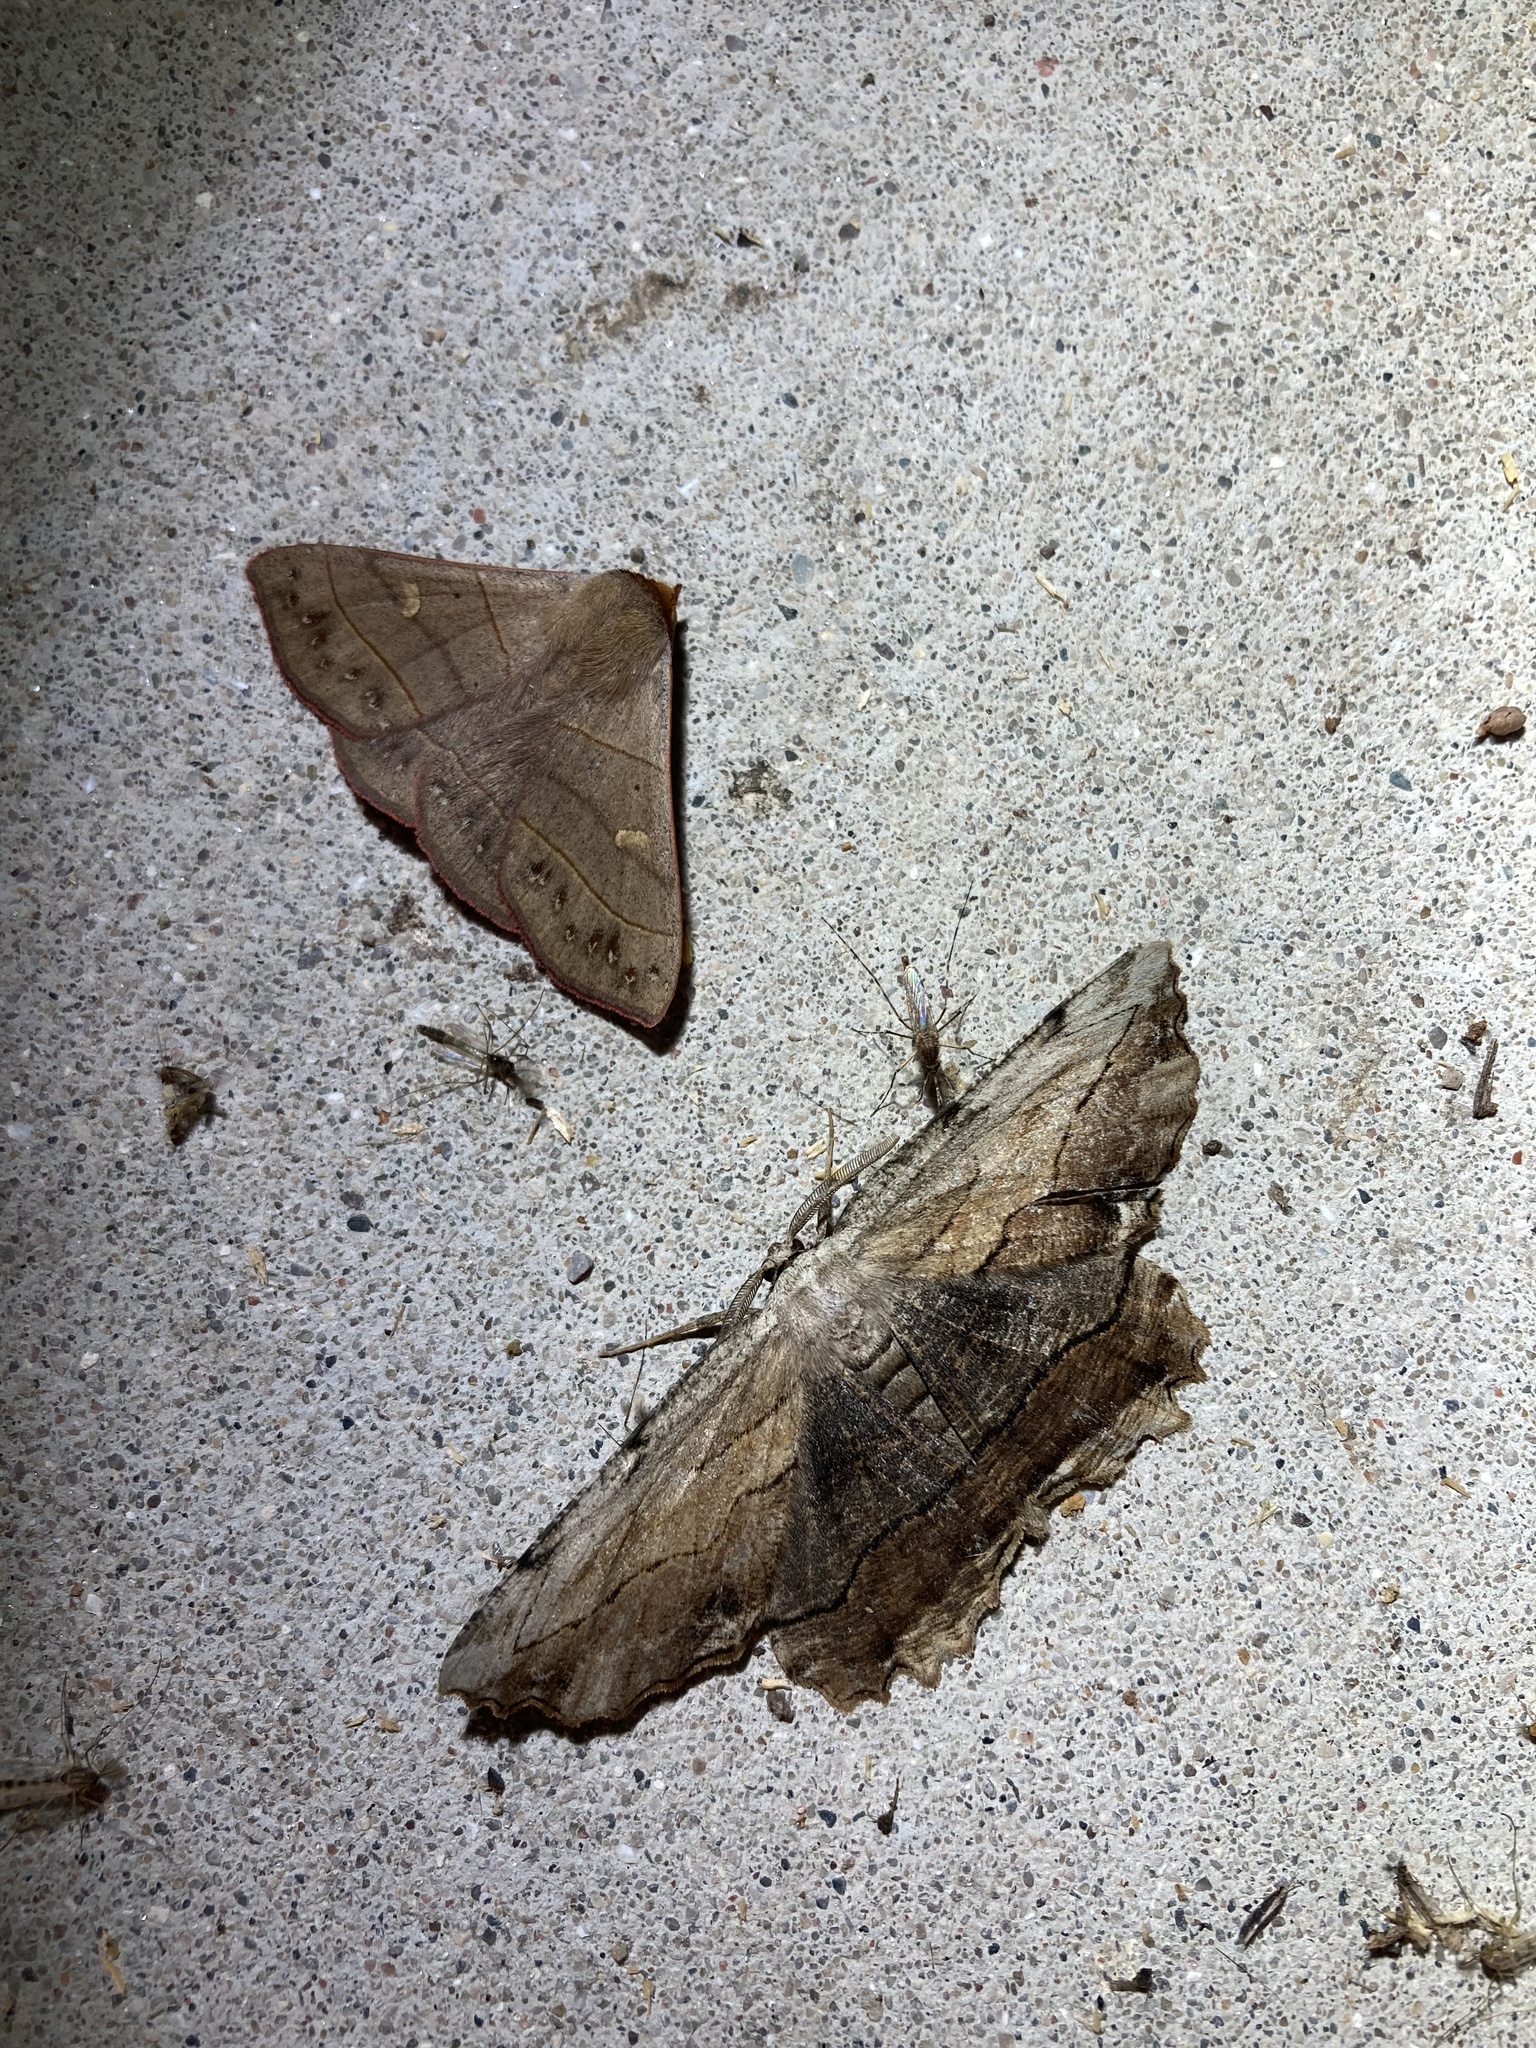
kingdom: Animalia
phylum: Arthropoda
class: Insecta
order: Lepidoptera
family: Geometridae
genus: Lytrosis
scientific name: Lytrosis unitaria
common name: Common lytrosis
